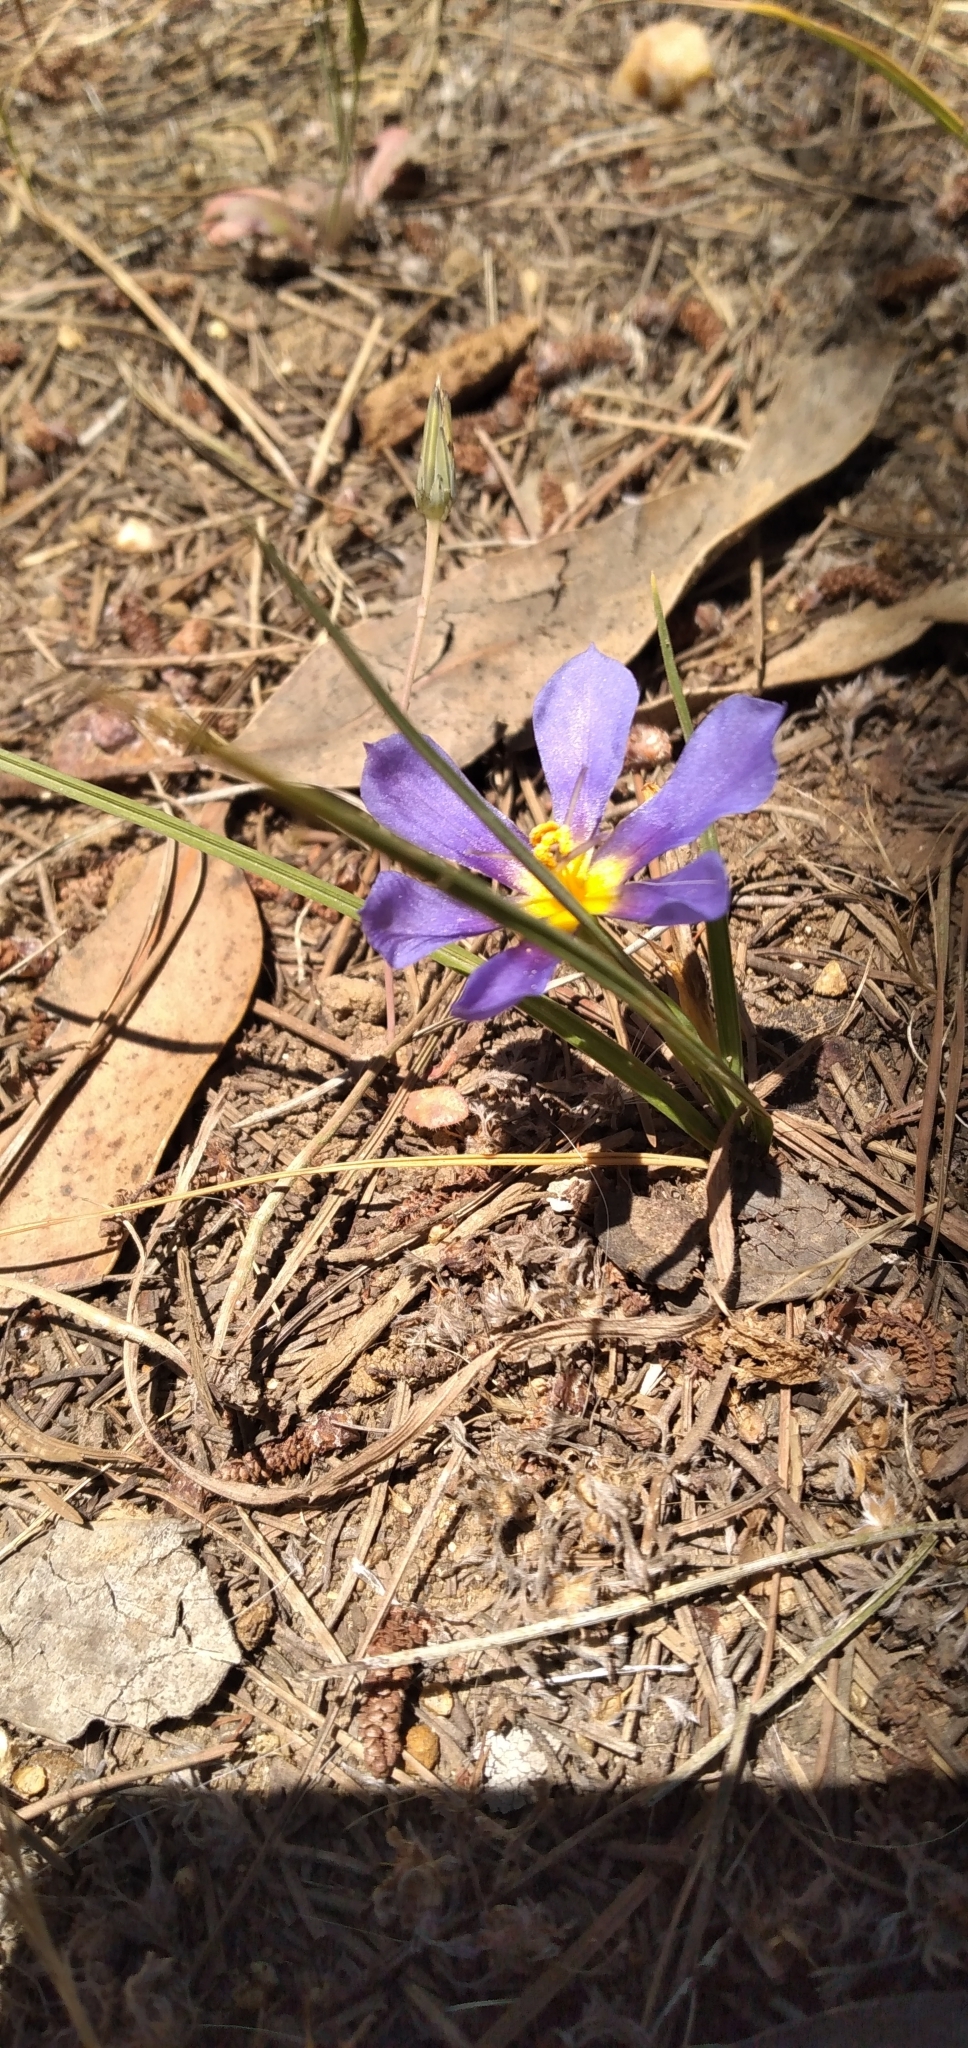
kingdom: Plantae
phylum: Tracheophyta
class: Liliopsida
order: Asparagales
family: Iridaceae
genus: Calydorea
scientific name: Calydorea xiphioides
